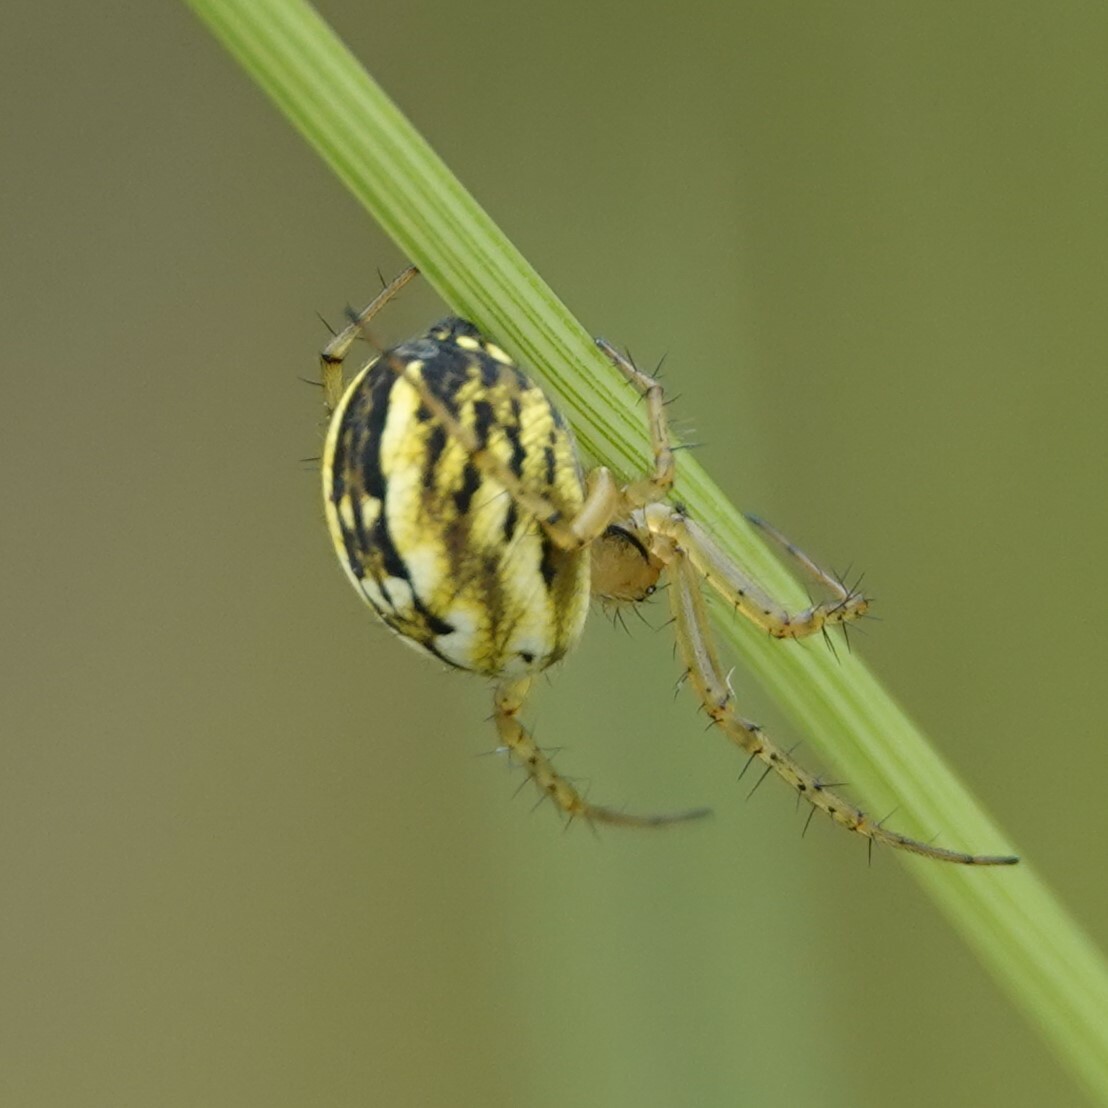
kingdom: Animalia
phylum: Arthropoda
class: Arachnida
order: Araneae
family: Araneidae
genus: Mangora
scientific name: Mangora acalypha
